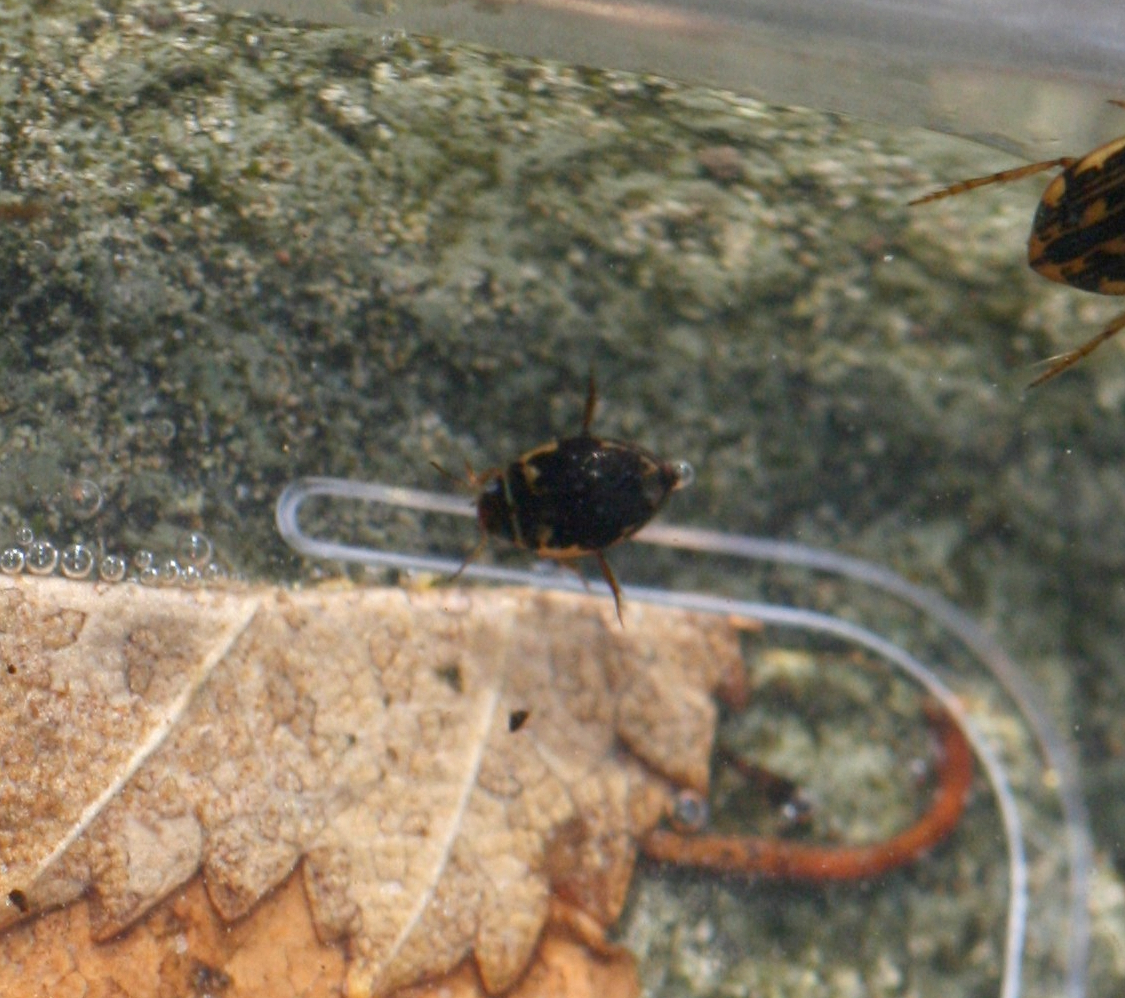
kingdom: Animalia
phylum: Arthropoda
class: Insecta
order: Coleoptera
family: Dytiscidae
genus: Hygrotus
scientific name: Hygrotus inaequalis
